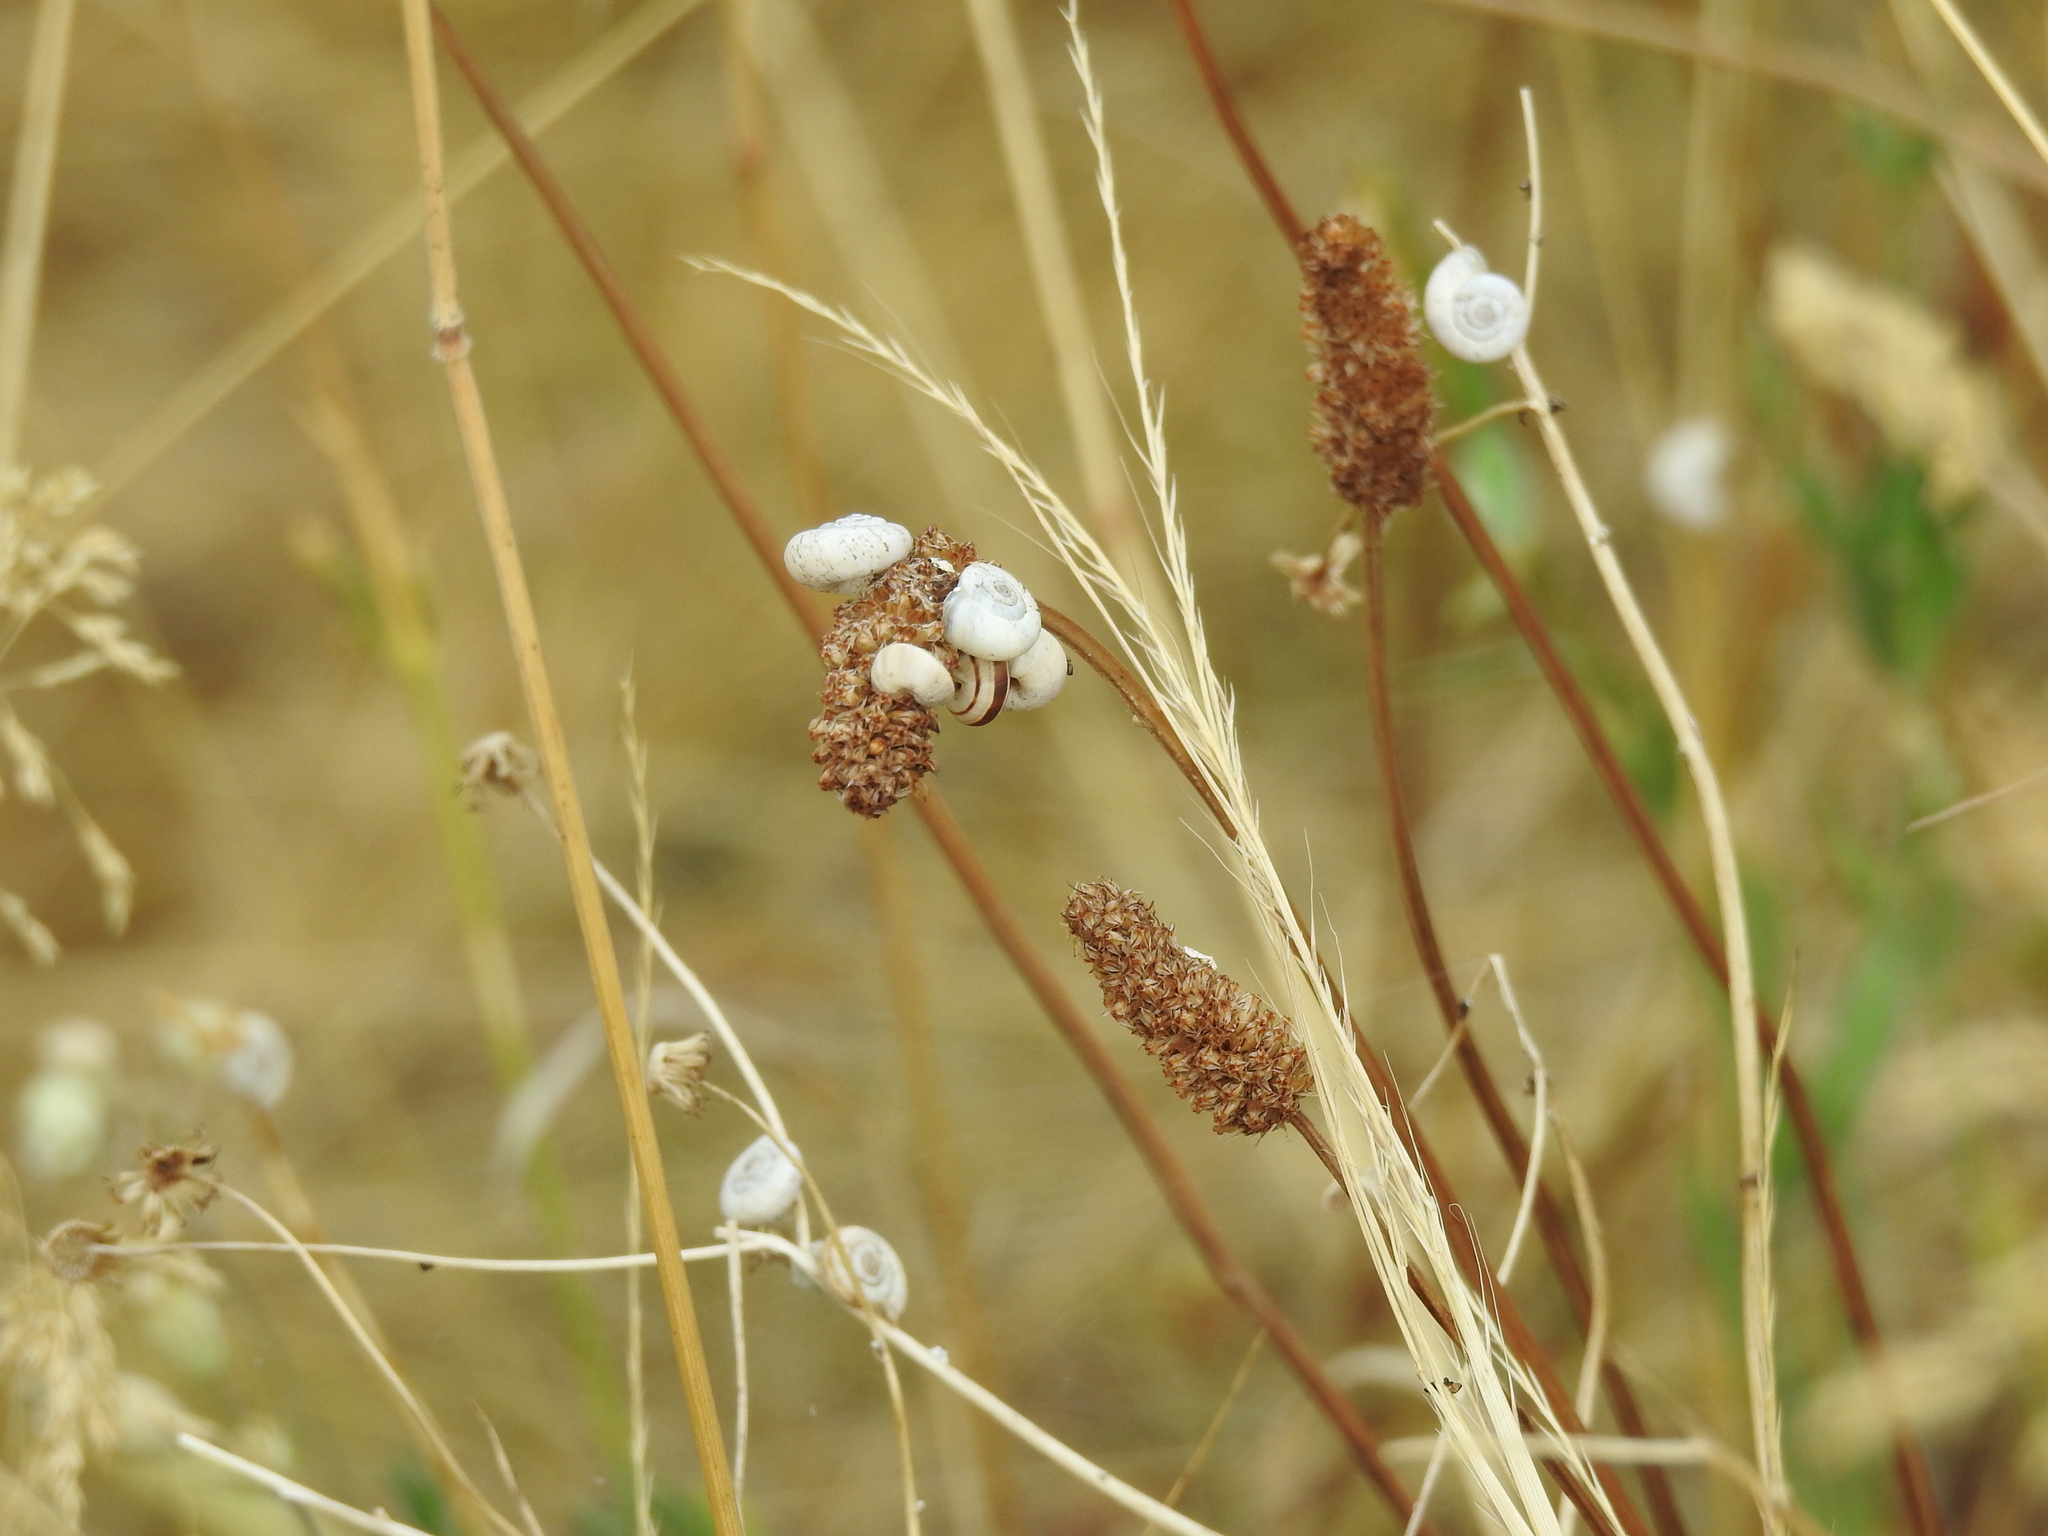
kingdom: Animalia
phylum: Mollusca
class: Gastropoda
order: Stylommatophora
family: Geomitridae
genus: Xerolenta
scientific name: Xerolenta obvia
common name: White heath snail
